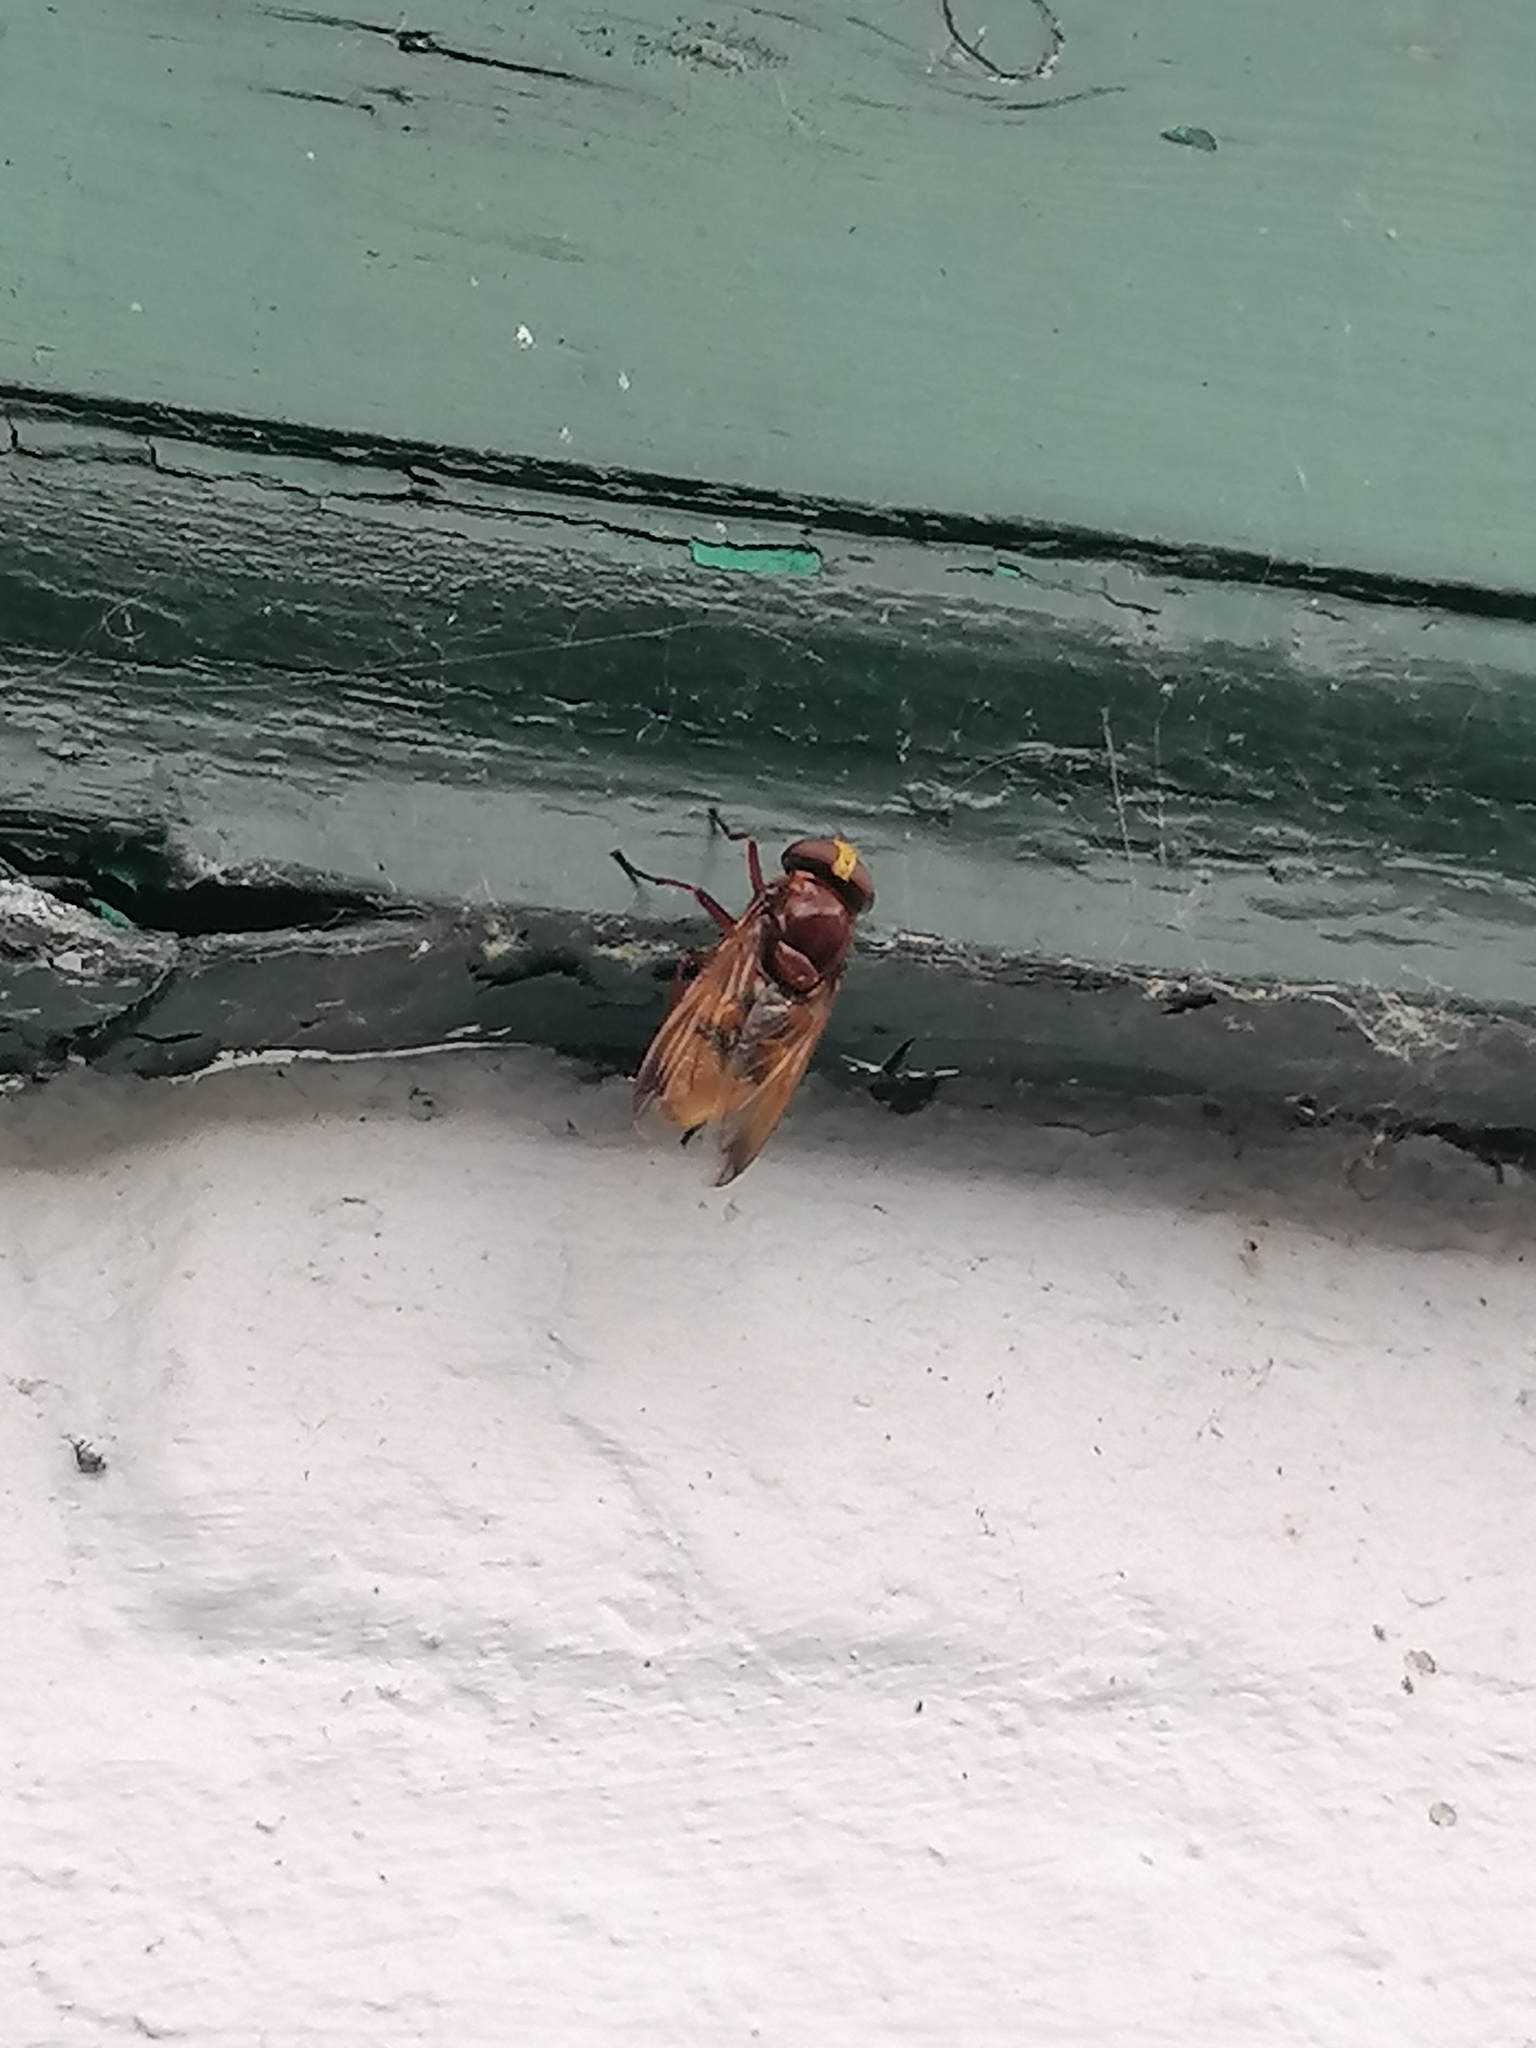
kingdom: Animalia
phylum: Arthropoda
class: Insecta
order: Diptera
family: Syrphidae
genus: Volucella
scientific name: Volucella zonaria
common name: Hornet hoverfly
